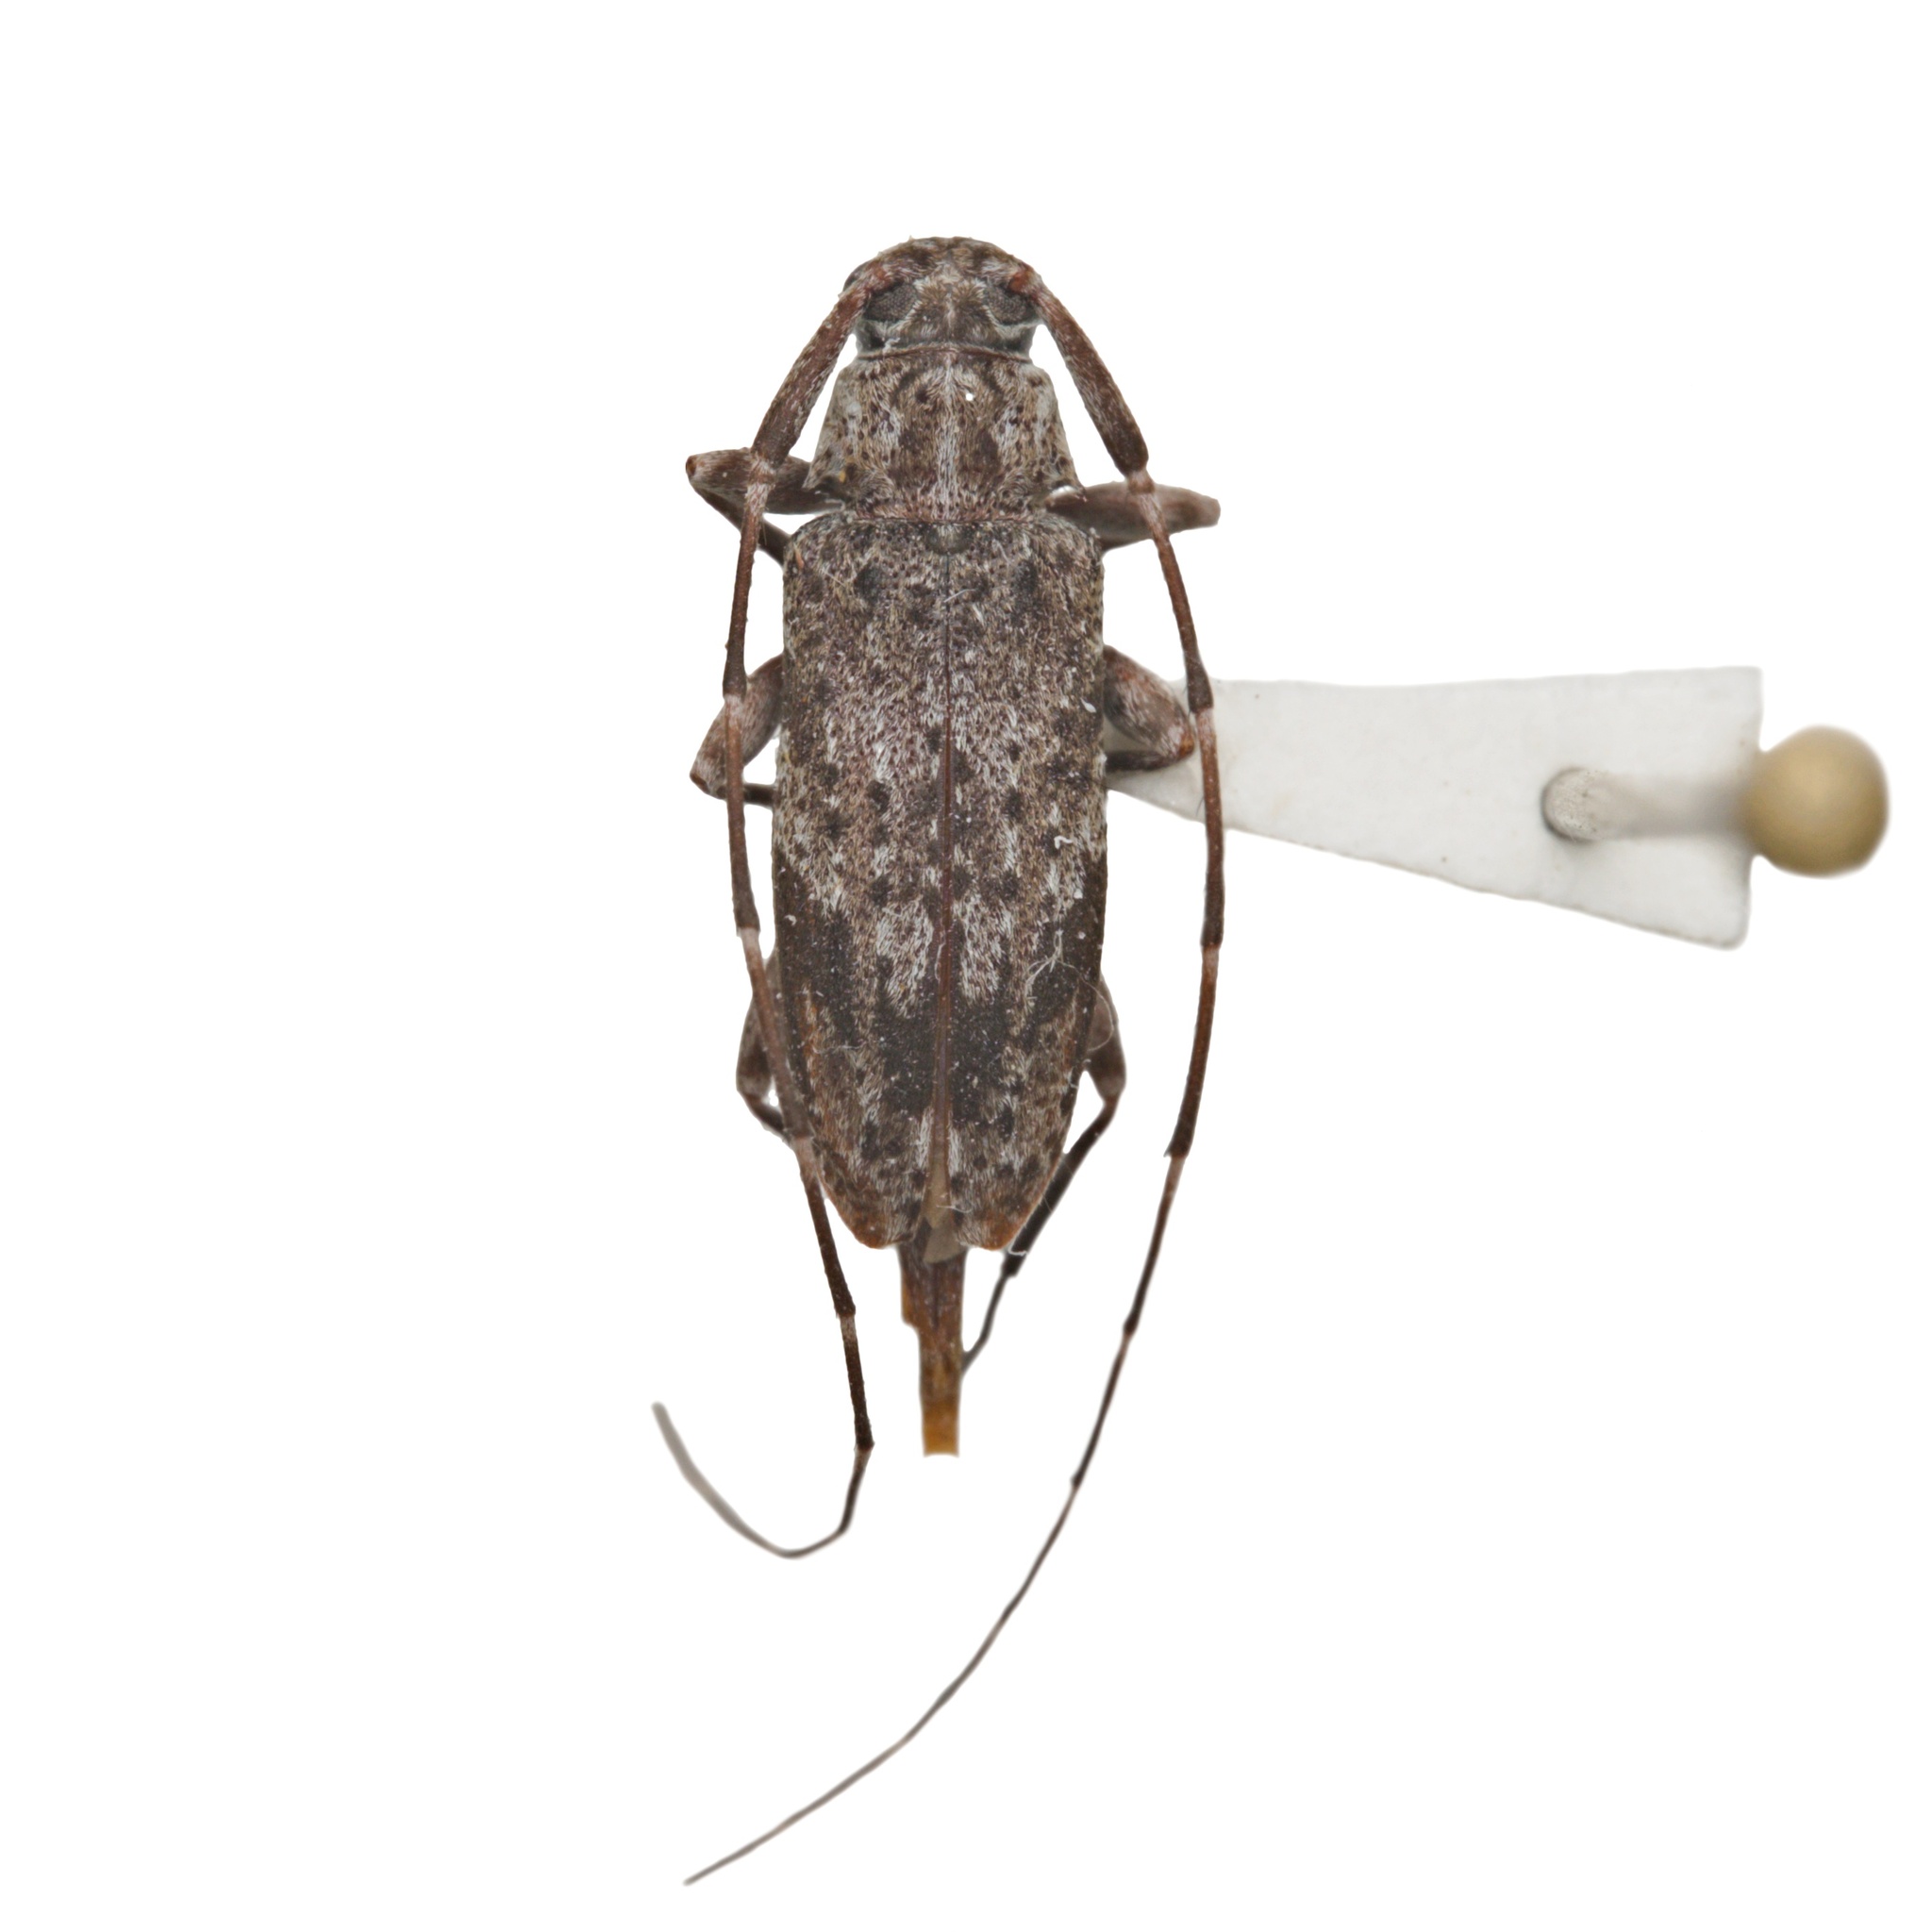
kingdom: Animalia
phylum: Arthropoda
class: Insecta
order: Coleoptera
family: Cerambycidae
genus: Eutrichillus
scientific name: Eutrichillus neomexicanus
